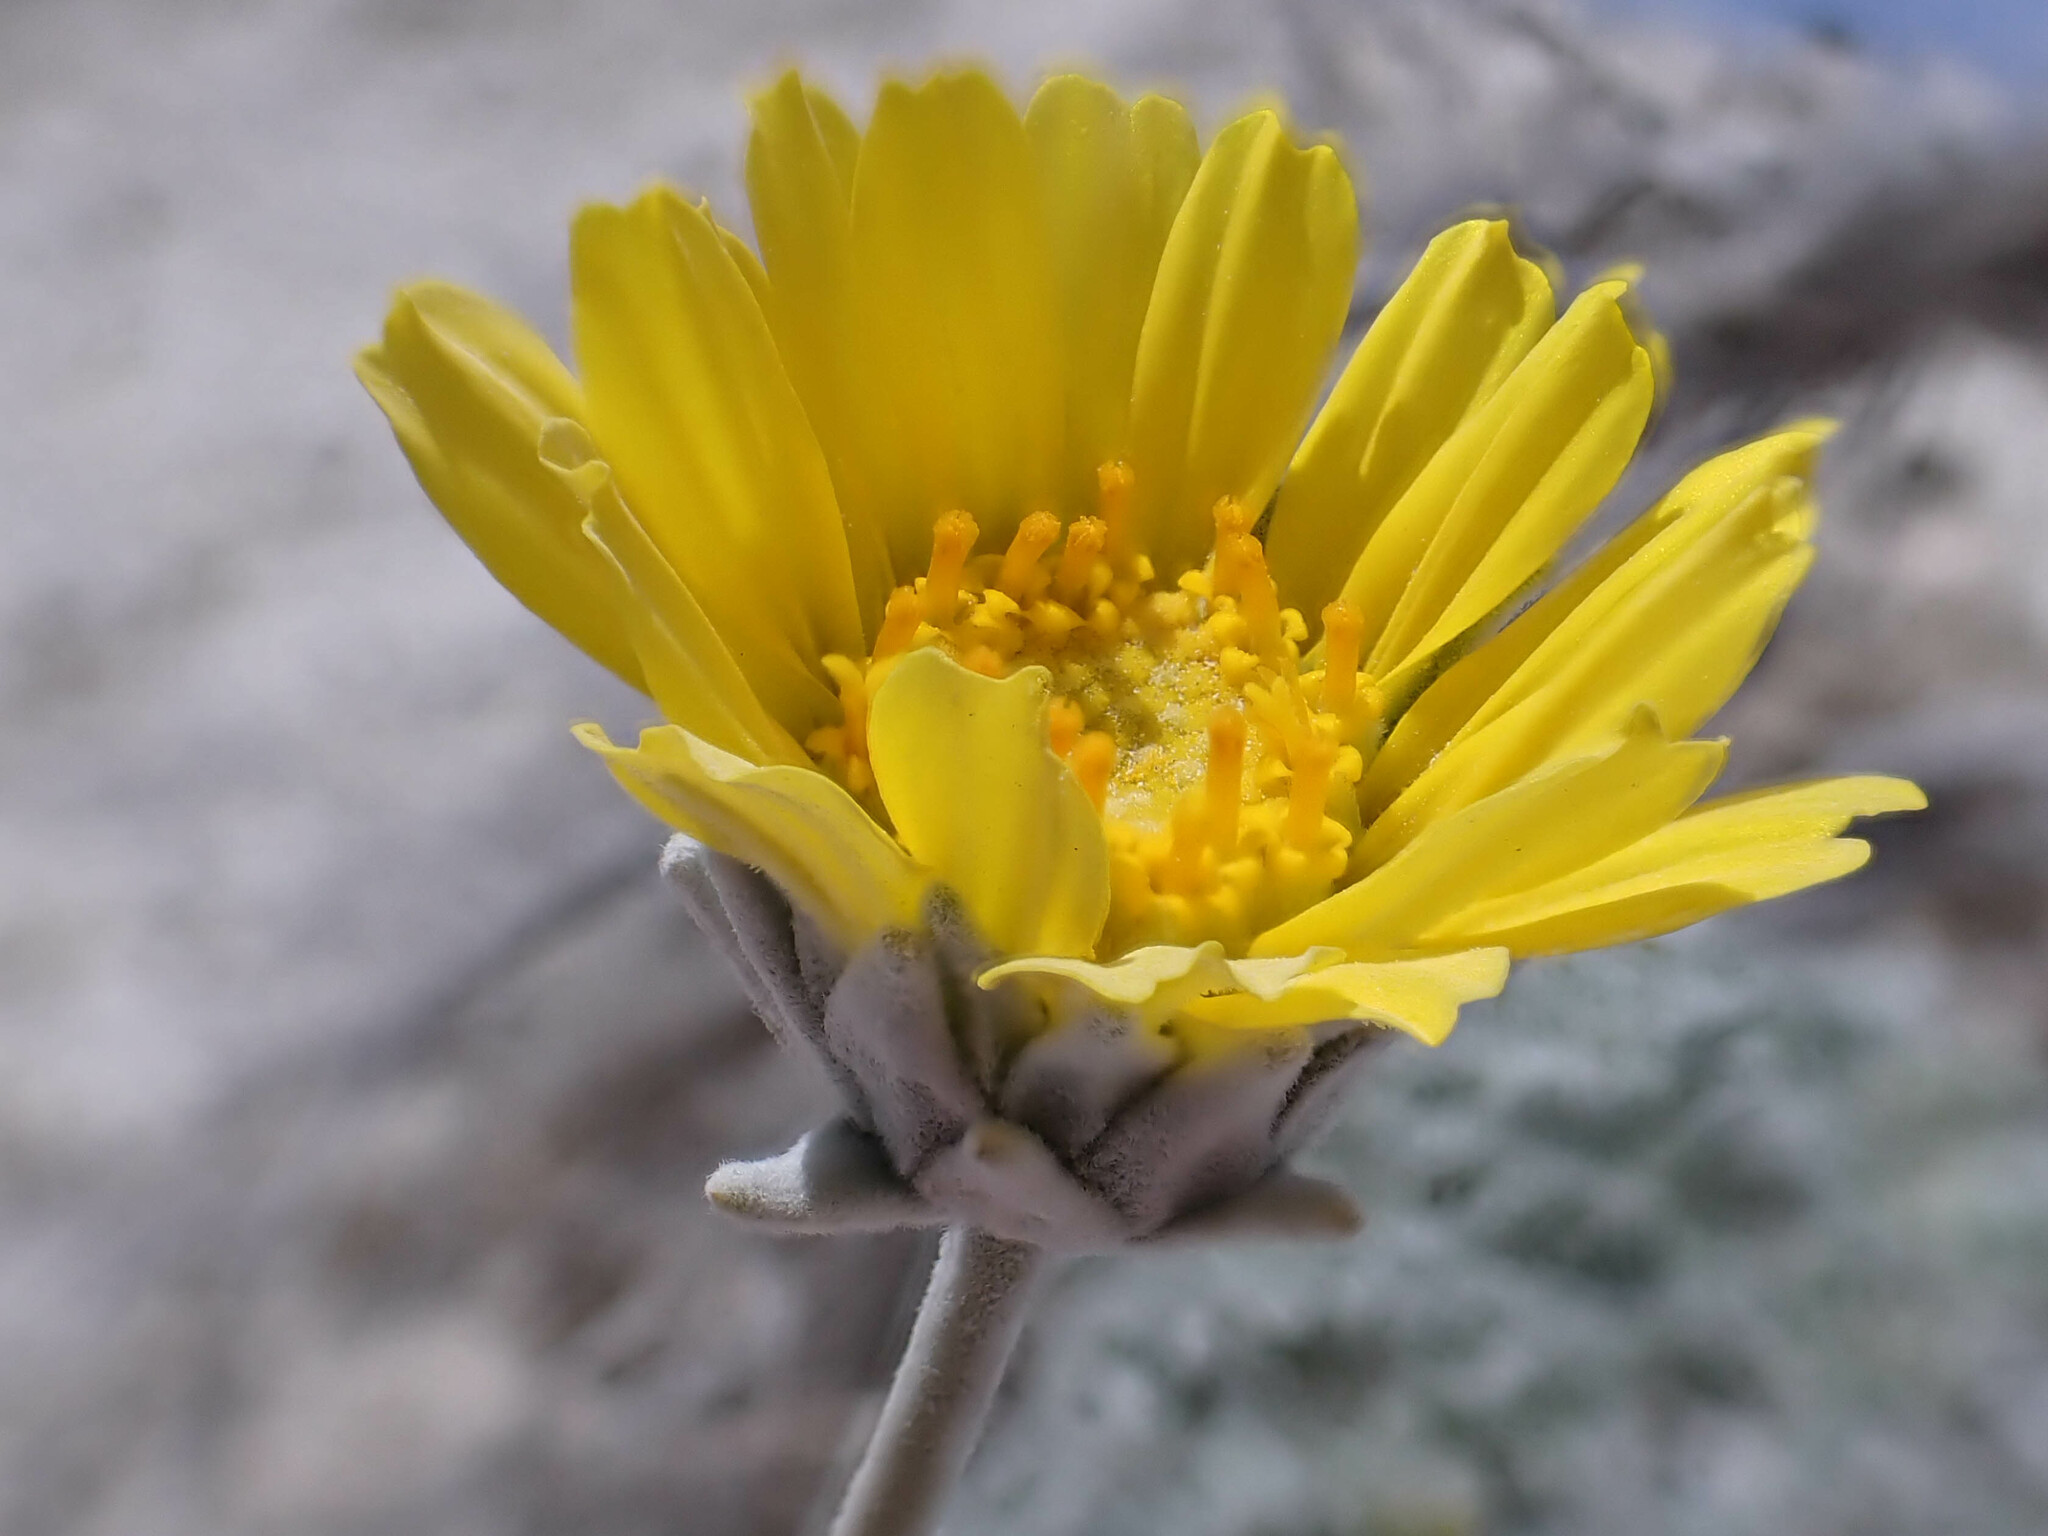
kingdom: Plantae
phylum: Tracheophyta
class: Magnoliopsida
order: Asterales
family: Asteraceae
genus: Enceliopsis
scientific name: Enceliopsis nudicaulis
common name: Naked-stem daisy
